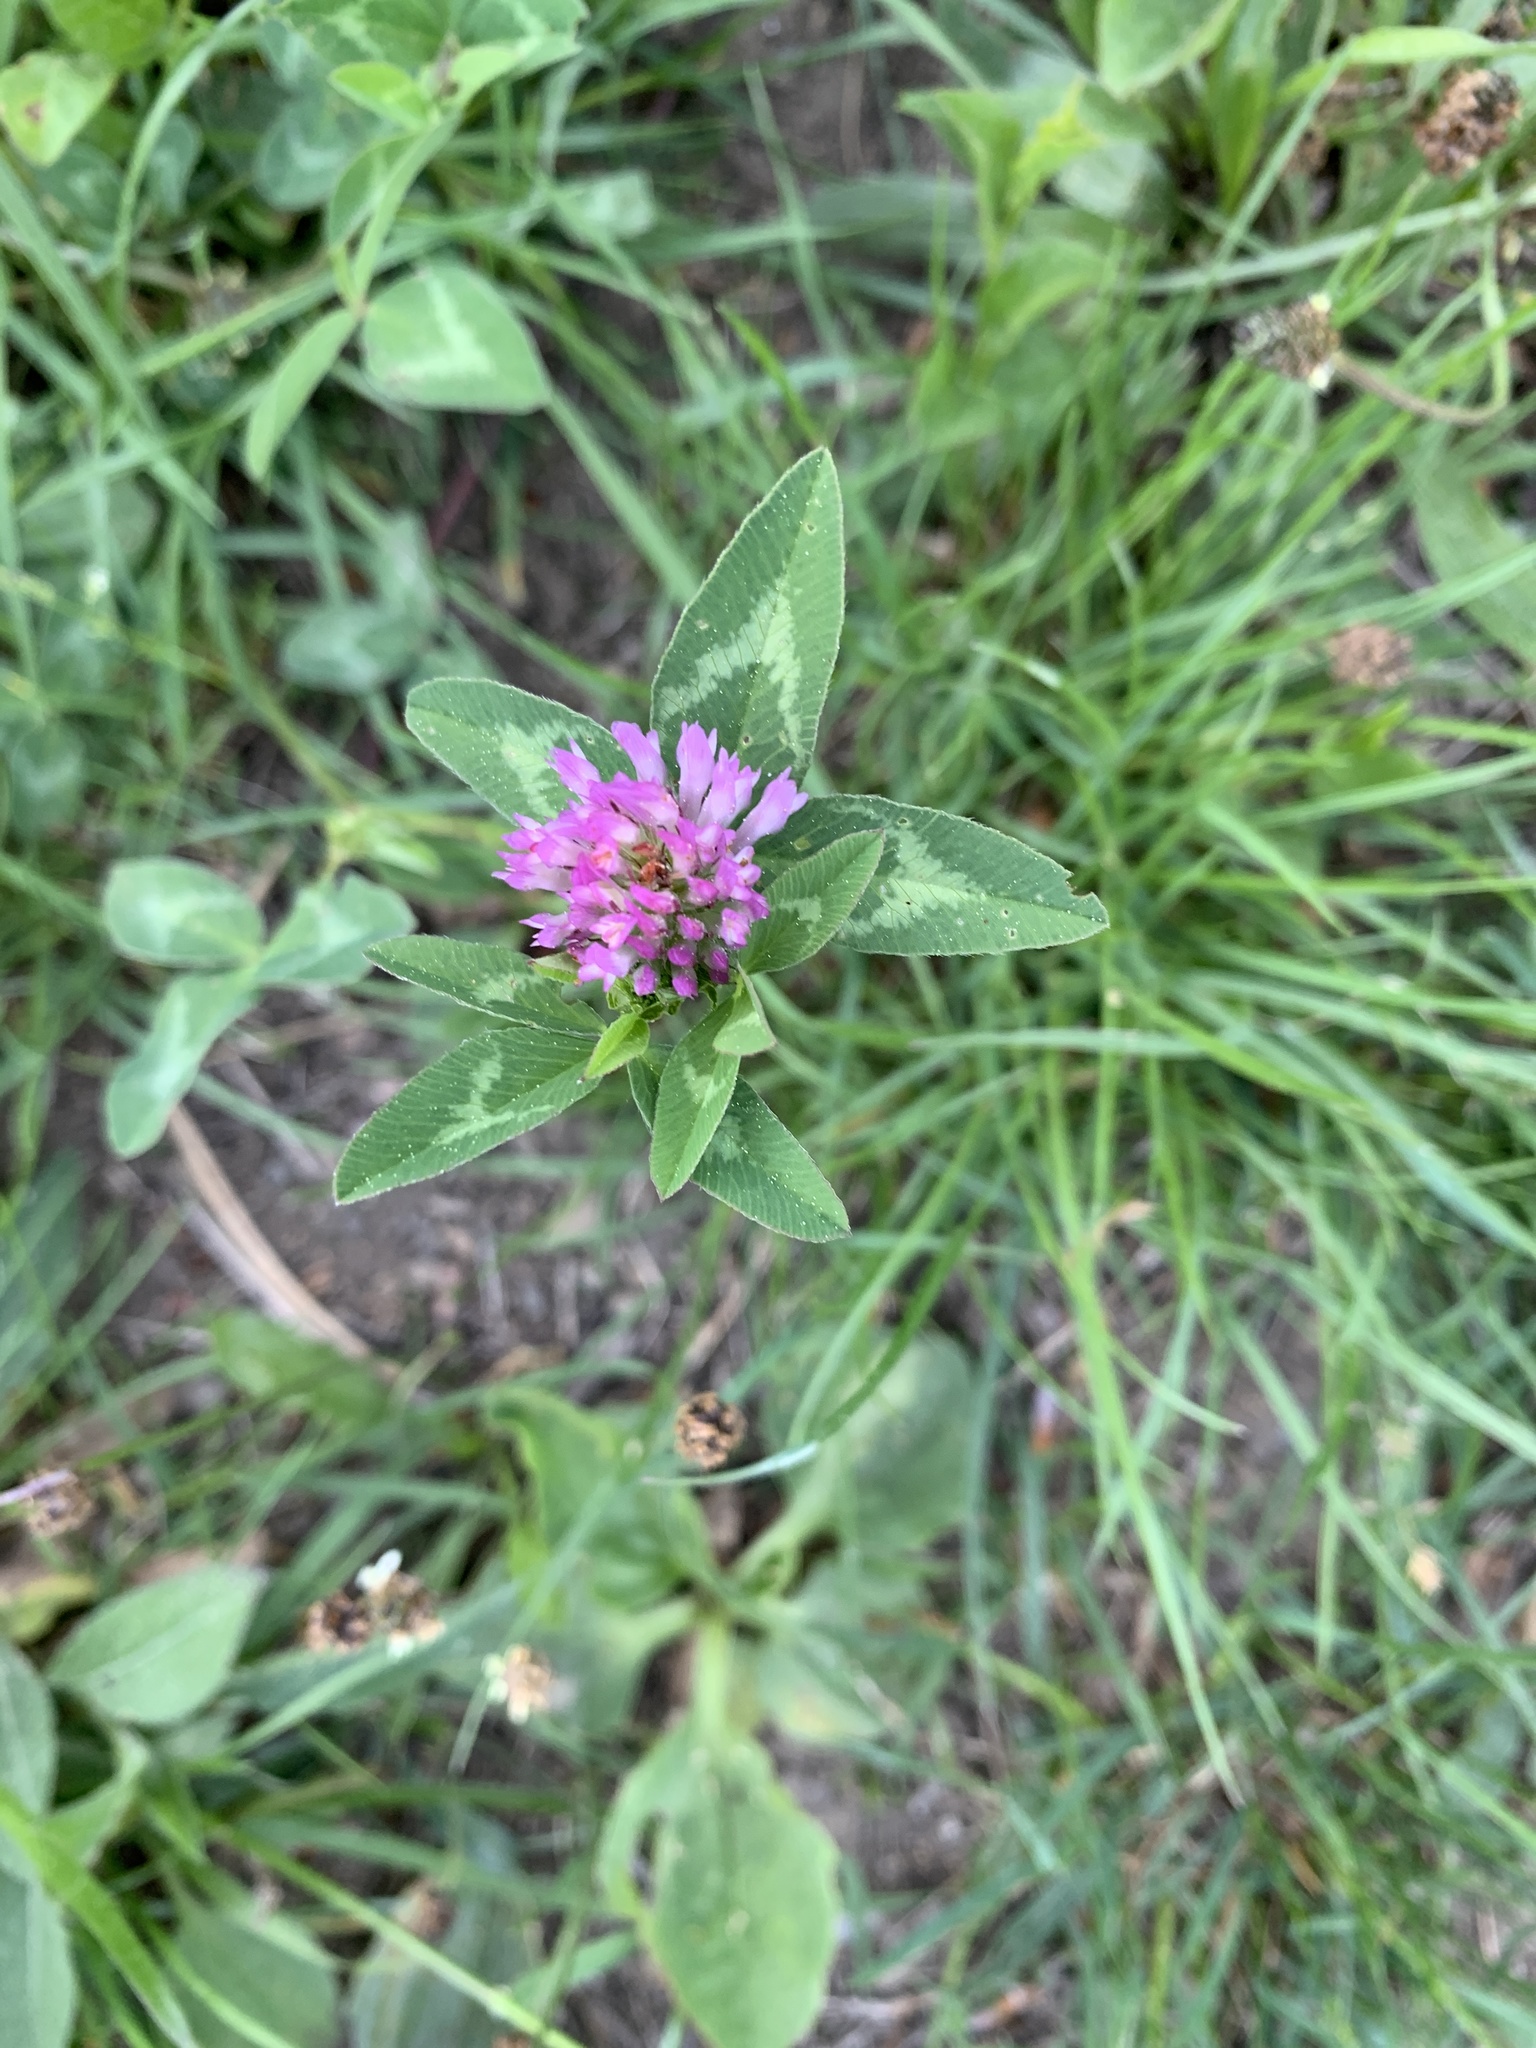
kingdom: Plantae
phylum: Tracheophyta
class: Magnoliopsida
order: Fabales
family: Fabaceae
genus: Trifolium
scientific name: Trifolium pratense
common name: Red clover
